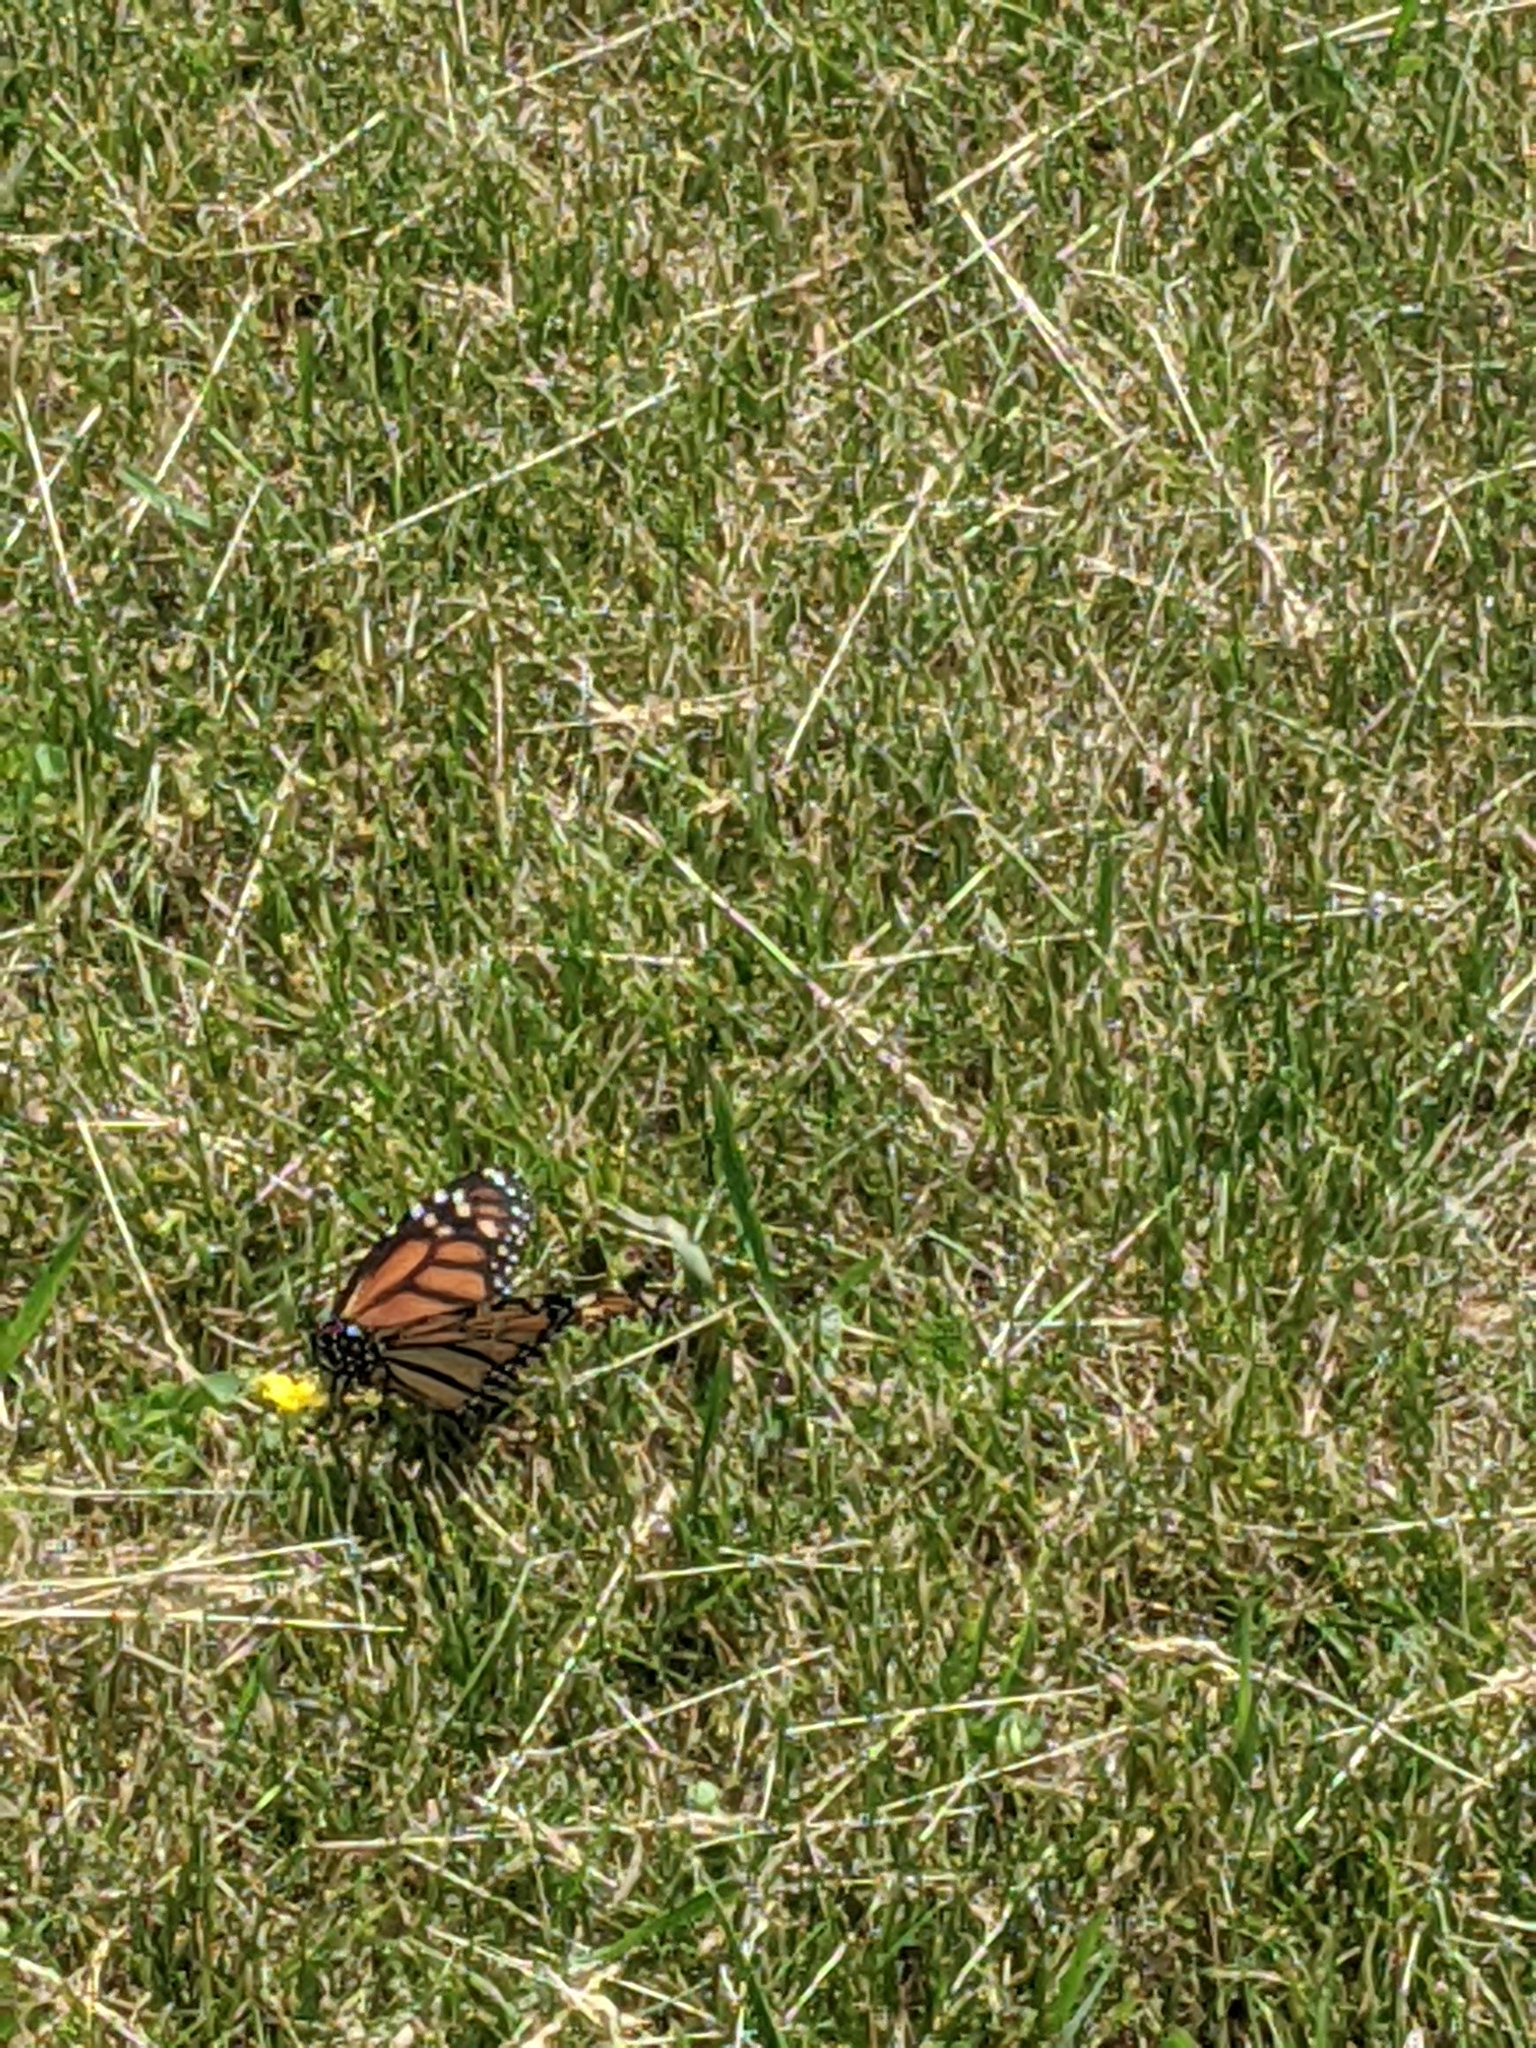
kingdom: Animalia
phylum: Arthropoda
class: Insecta
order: Lepidoptera
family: Nymphalidae
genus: Danaus
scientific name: Danaus plexippus
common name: Monarch
